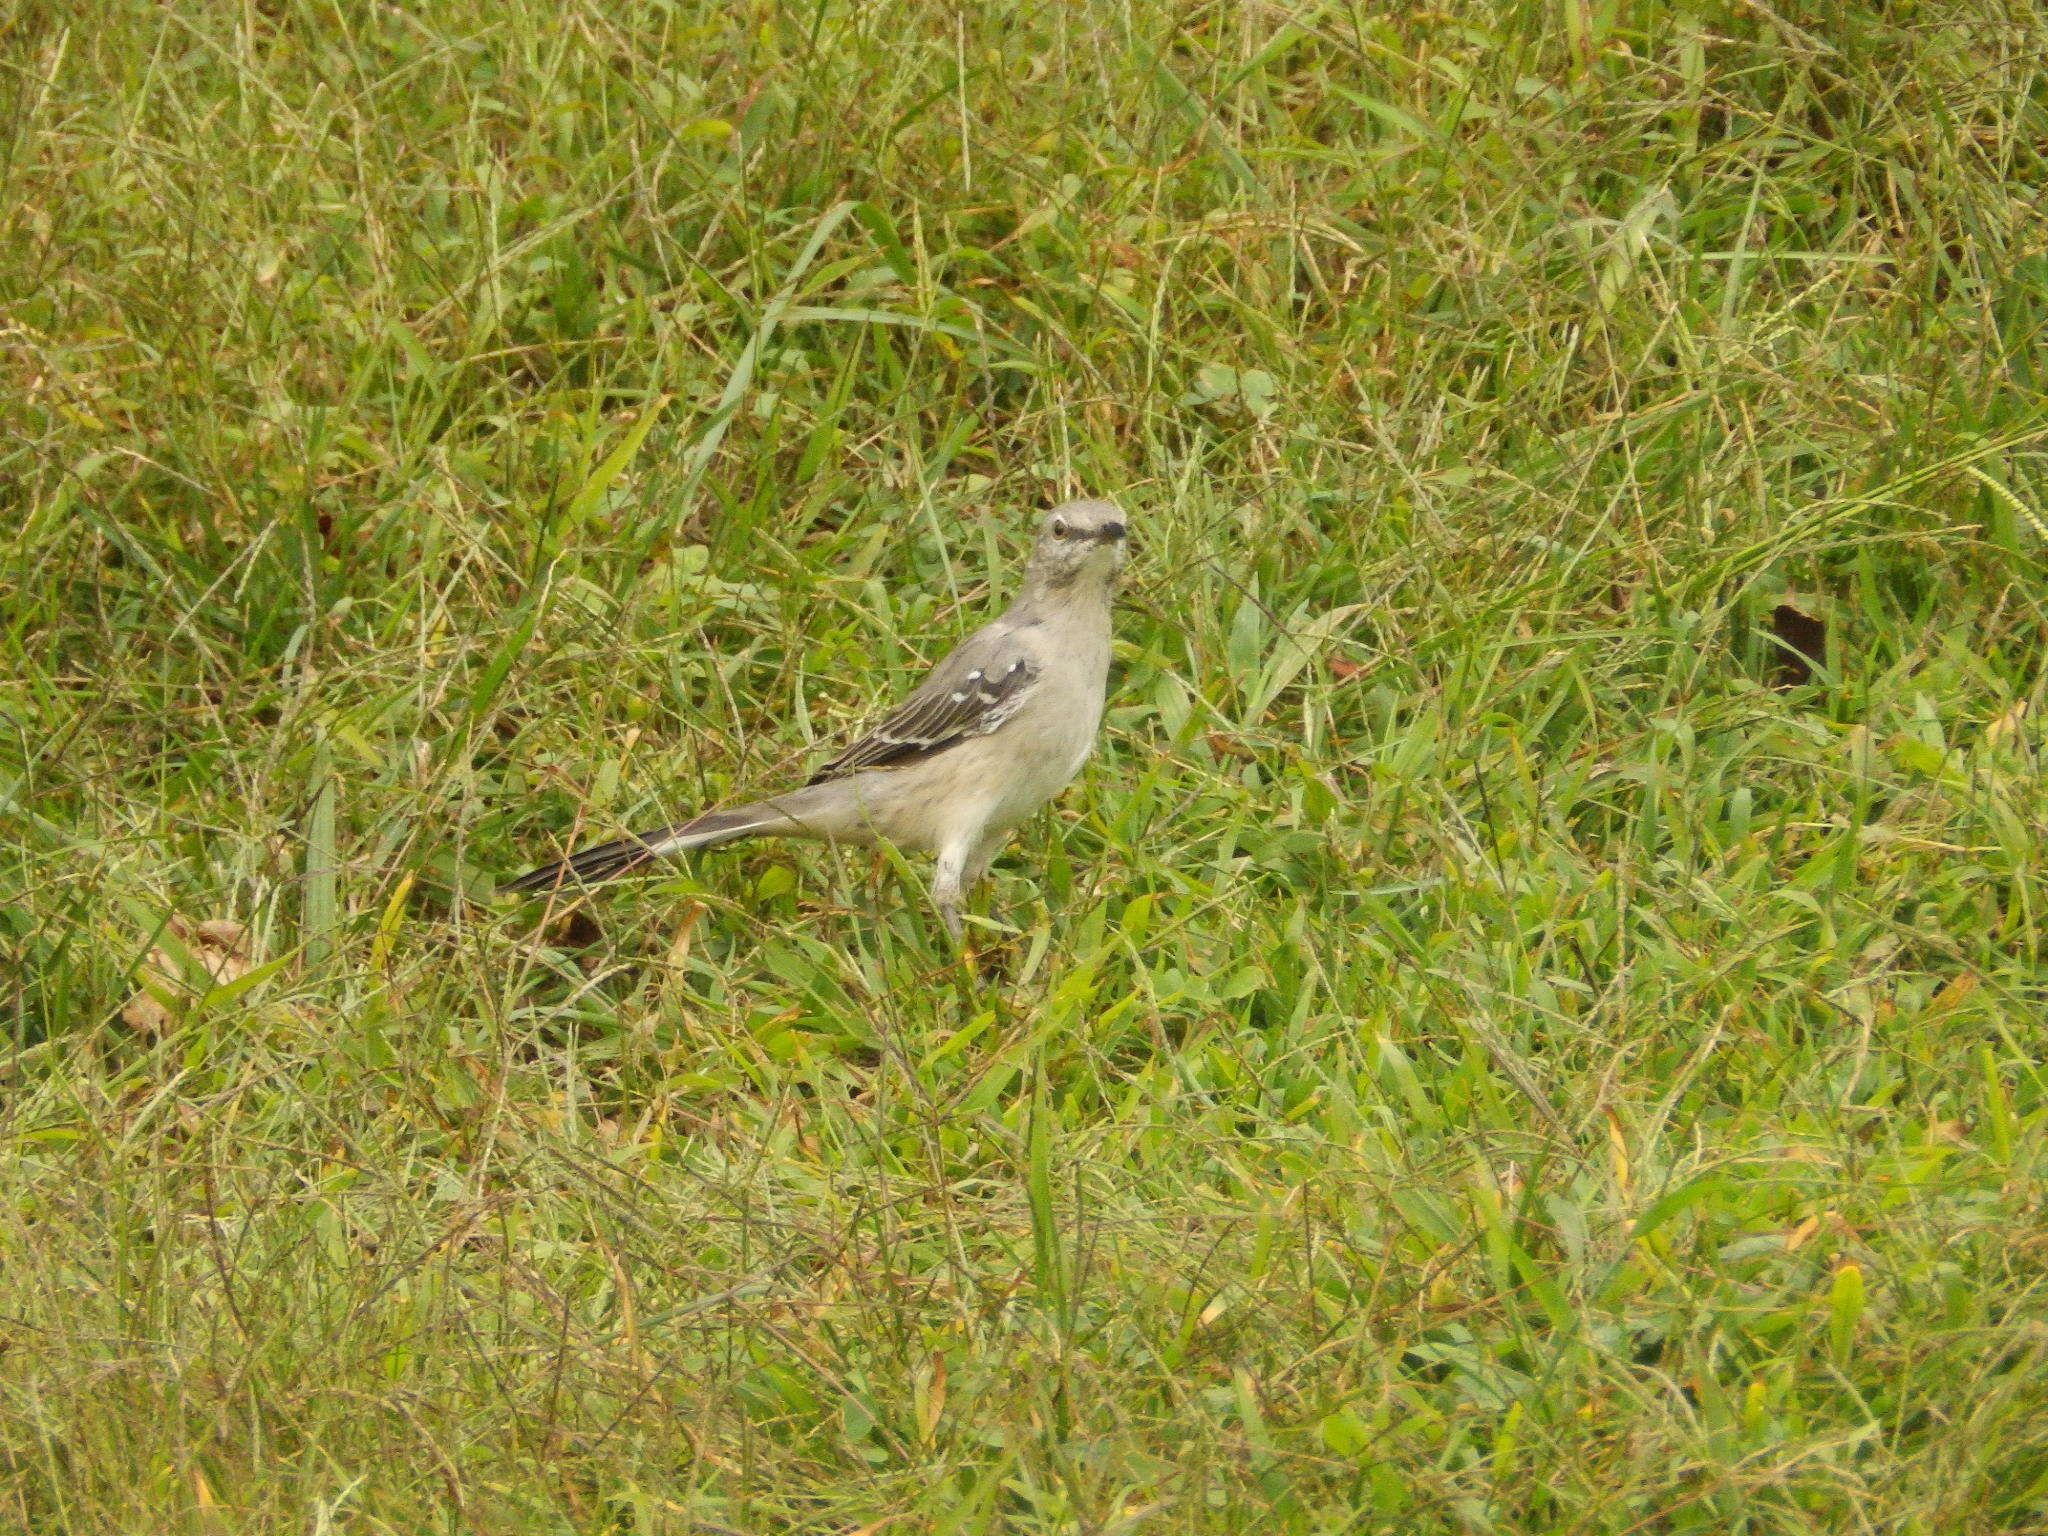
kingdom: Animalia
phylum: Chordata
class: Aves
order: Passeriformes
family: Mimidae
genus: Mimus
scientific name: Mimus polyglottos
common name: Northern mockingbird
